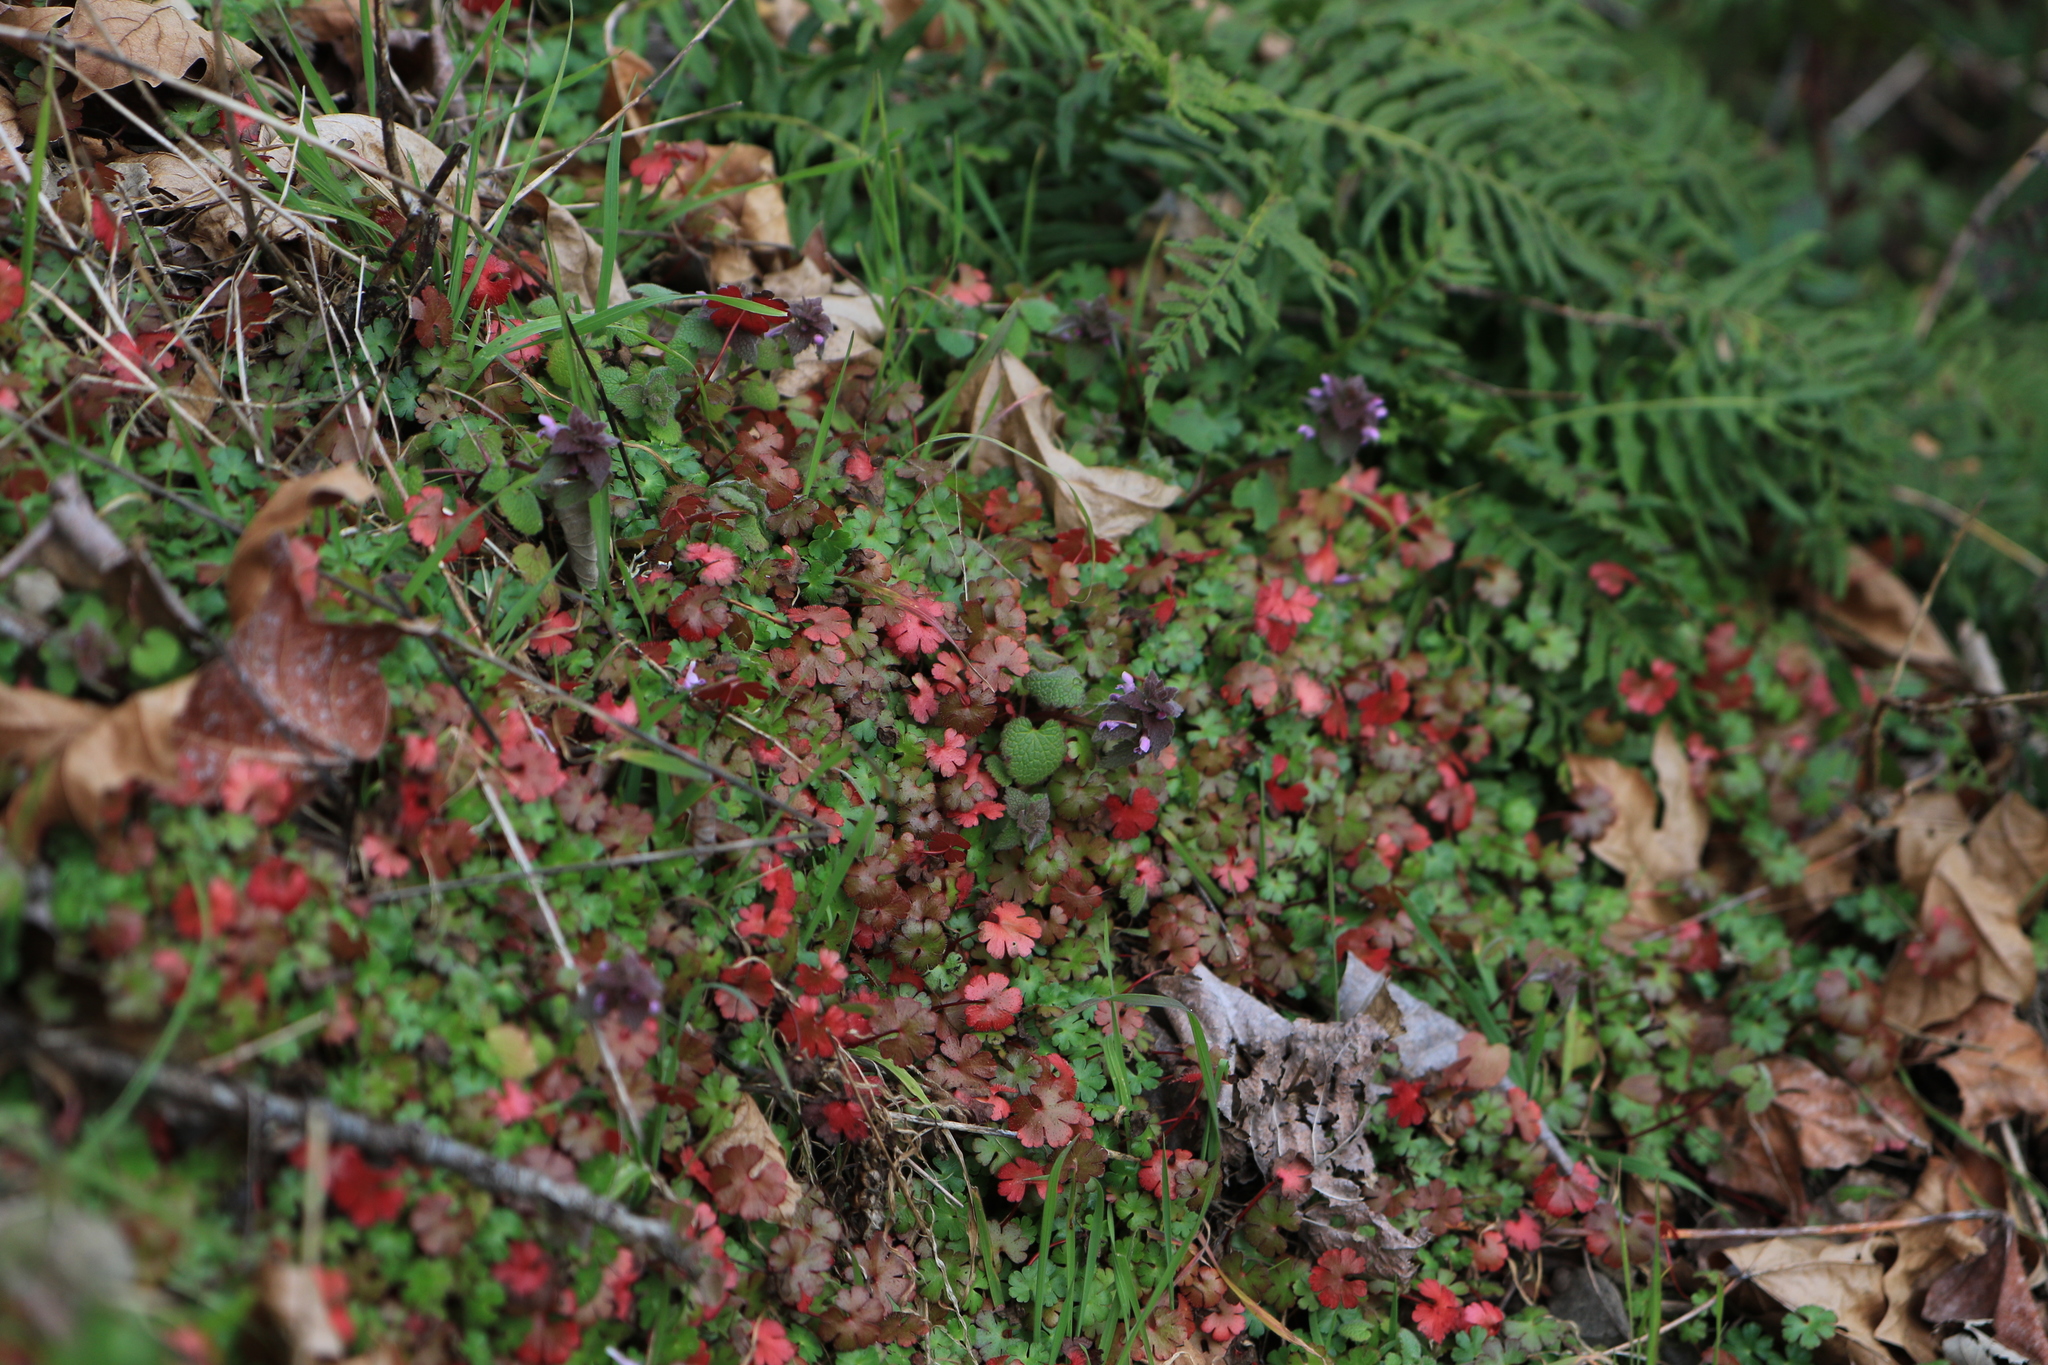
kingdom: Plantae
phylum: Tracheophyta
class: Magnoliopsida
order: Geraniales
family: Geraniaceae
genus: Geranium
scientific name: Geranium lucidum
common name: Shining crane's-bill
